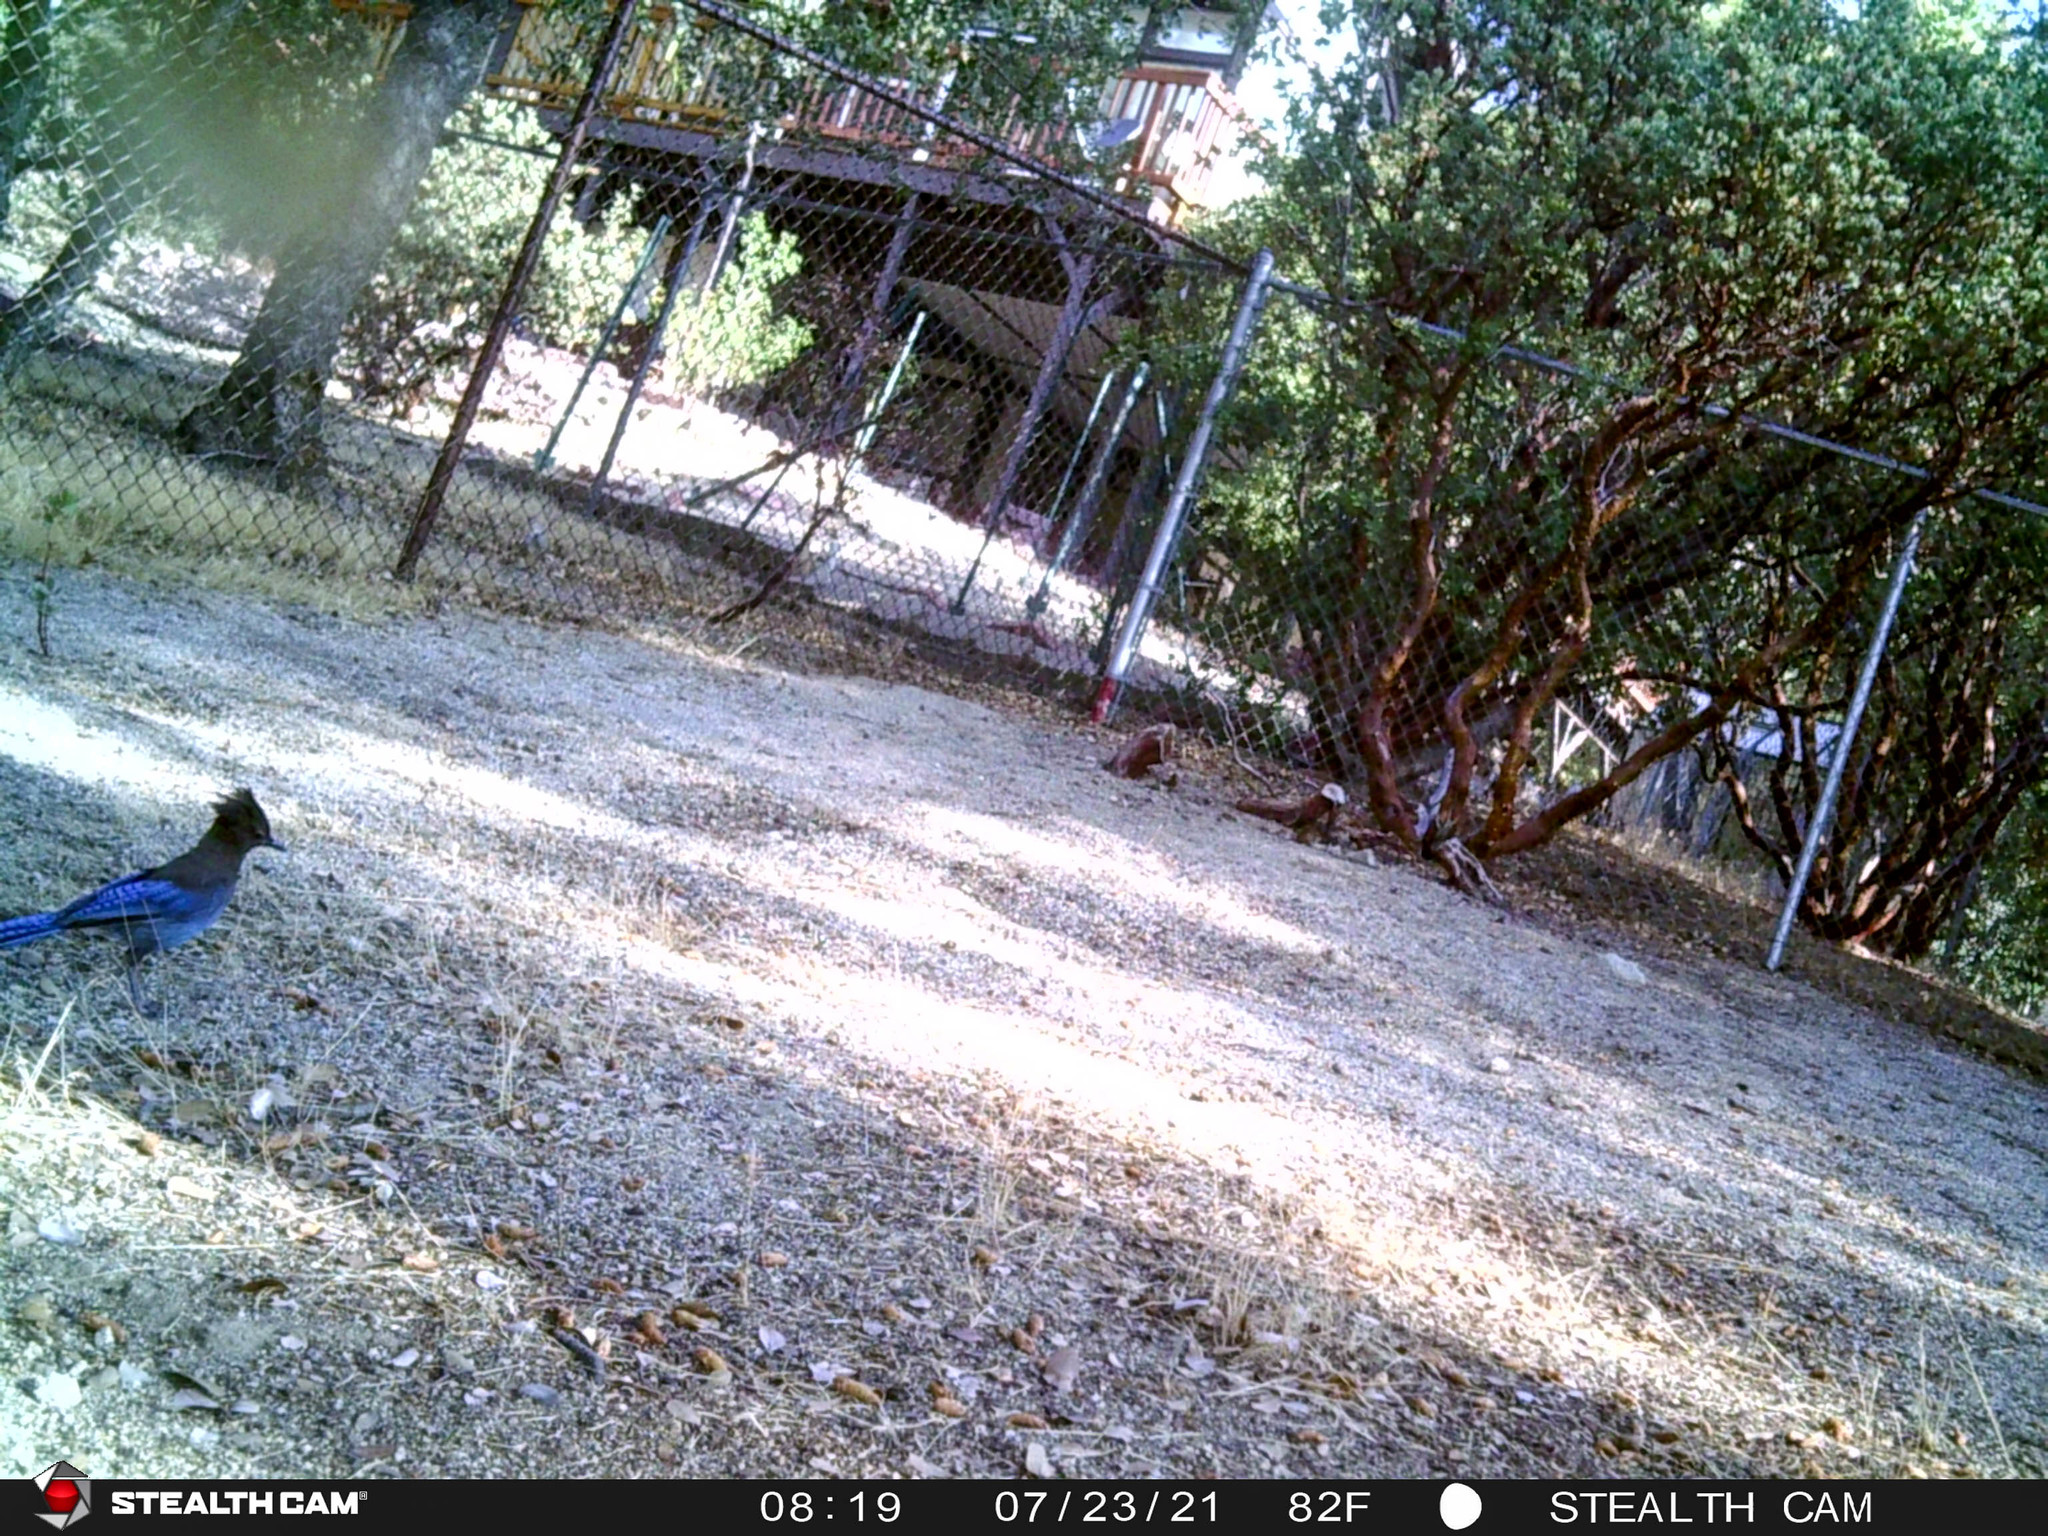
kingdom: Animalia
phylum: Chordata
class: Aves
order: Passeriformes
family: Corvidae
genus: Cyanocitta
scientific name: Cyanocitta stelleri
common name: Steller's jay
